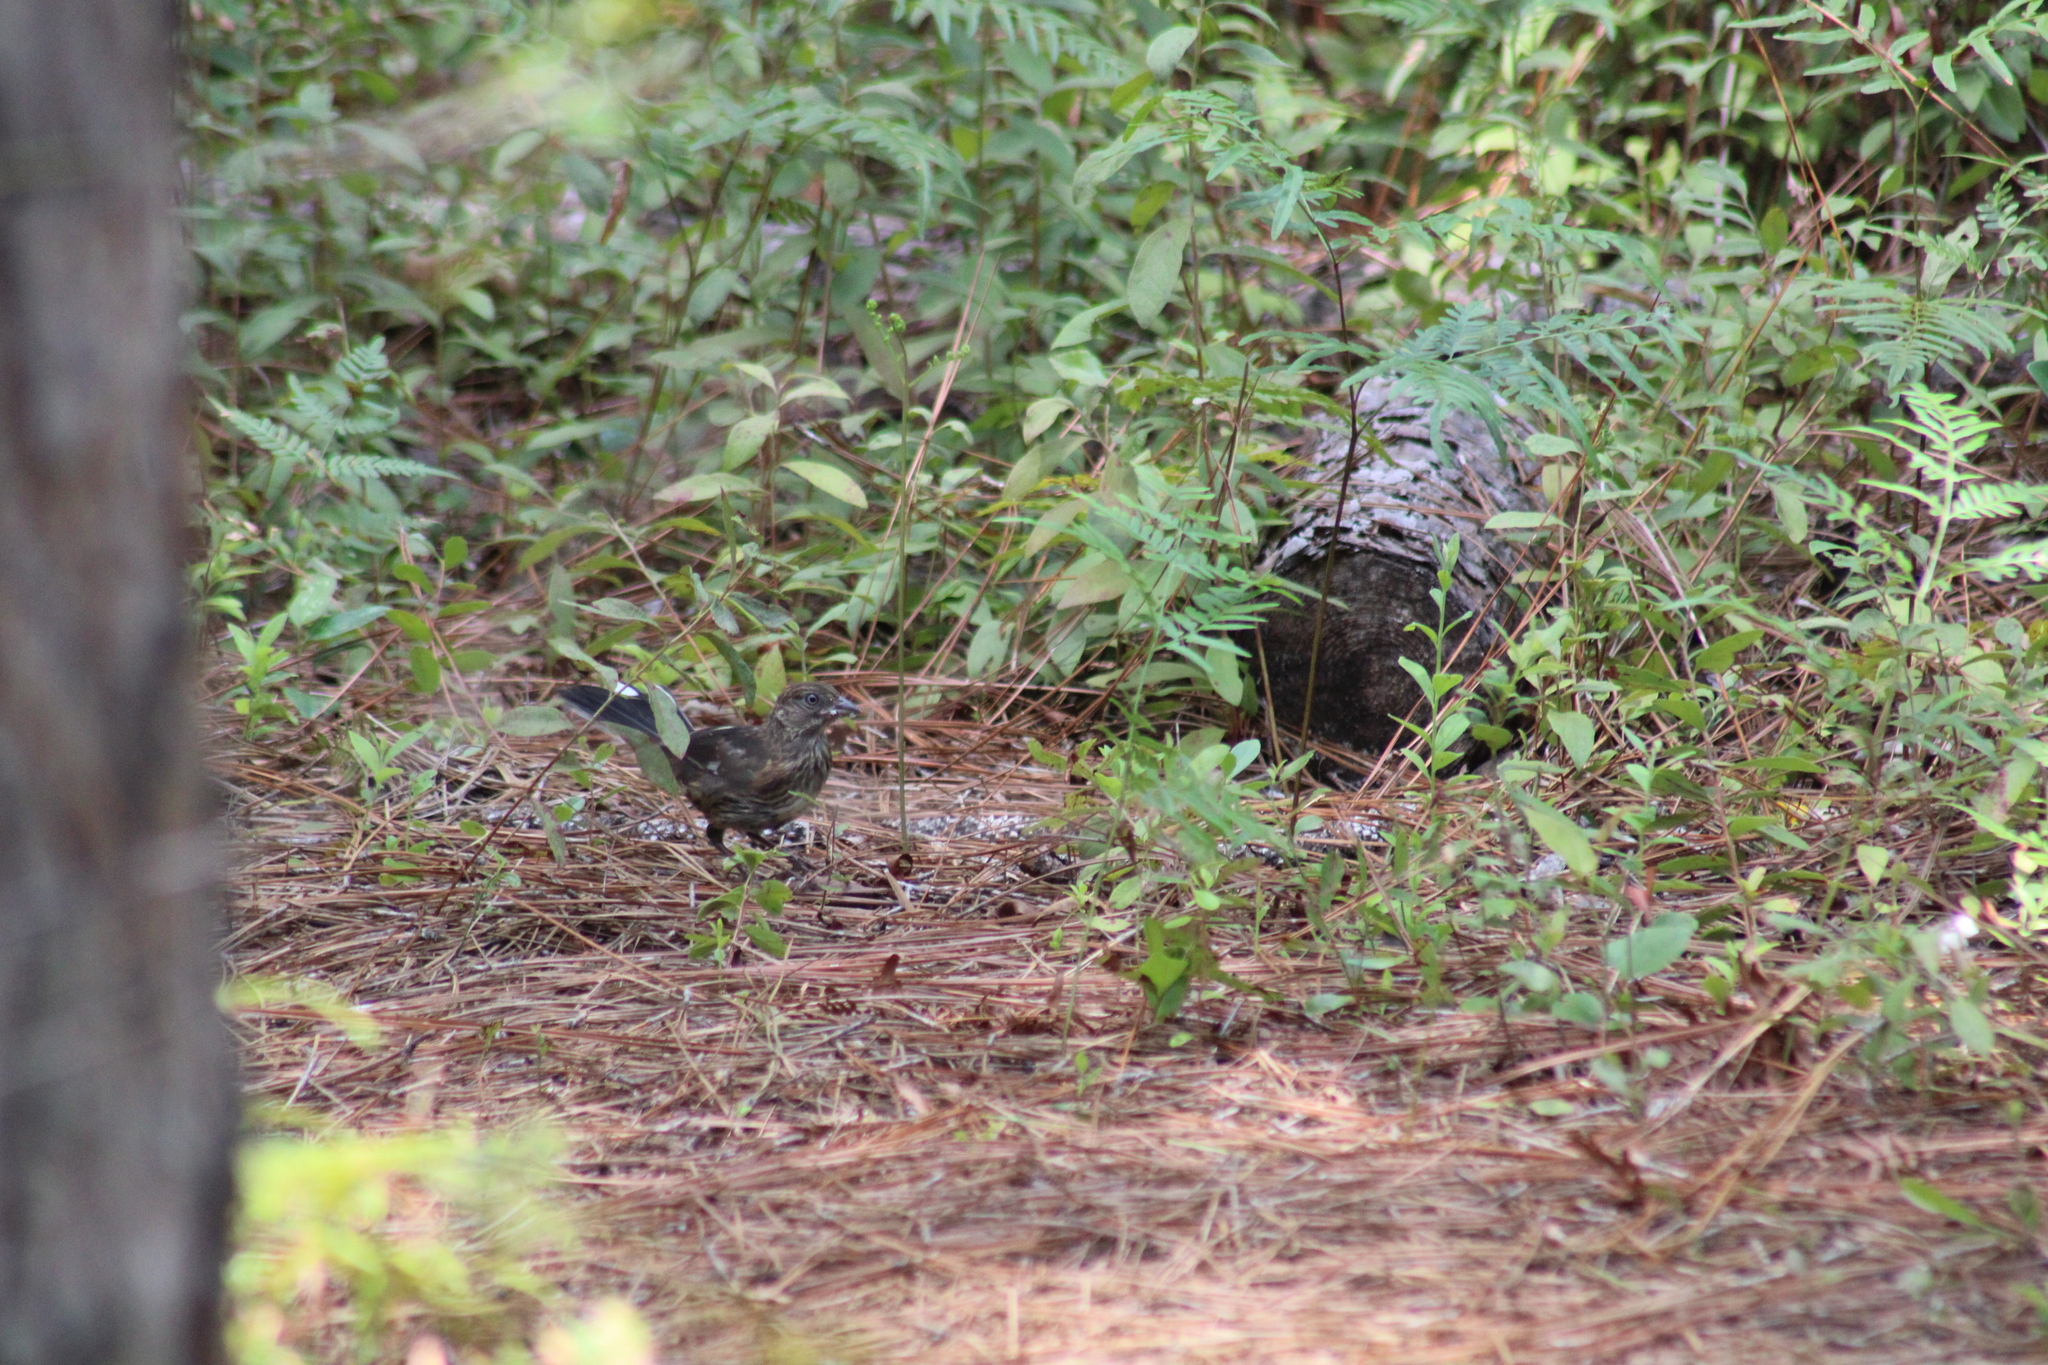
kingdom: Animalia
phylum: Chordata
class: Aves
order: Passeriformes
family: Passerellidae
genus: Pipilo
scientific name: Pipilo erythrophthalmus
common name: Eastern towhee
